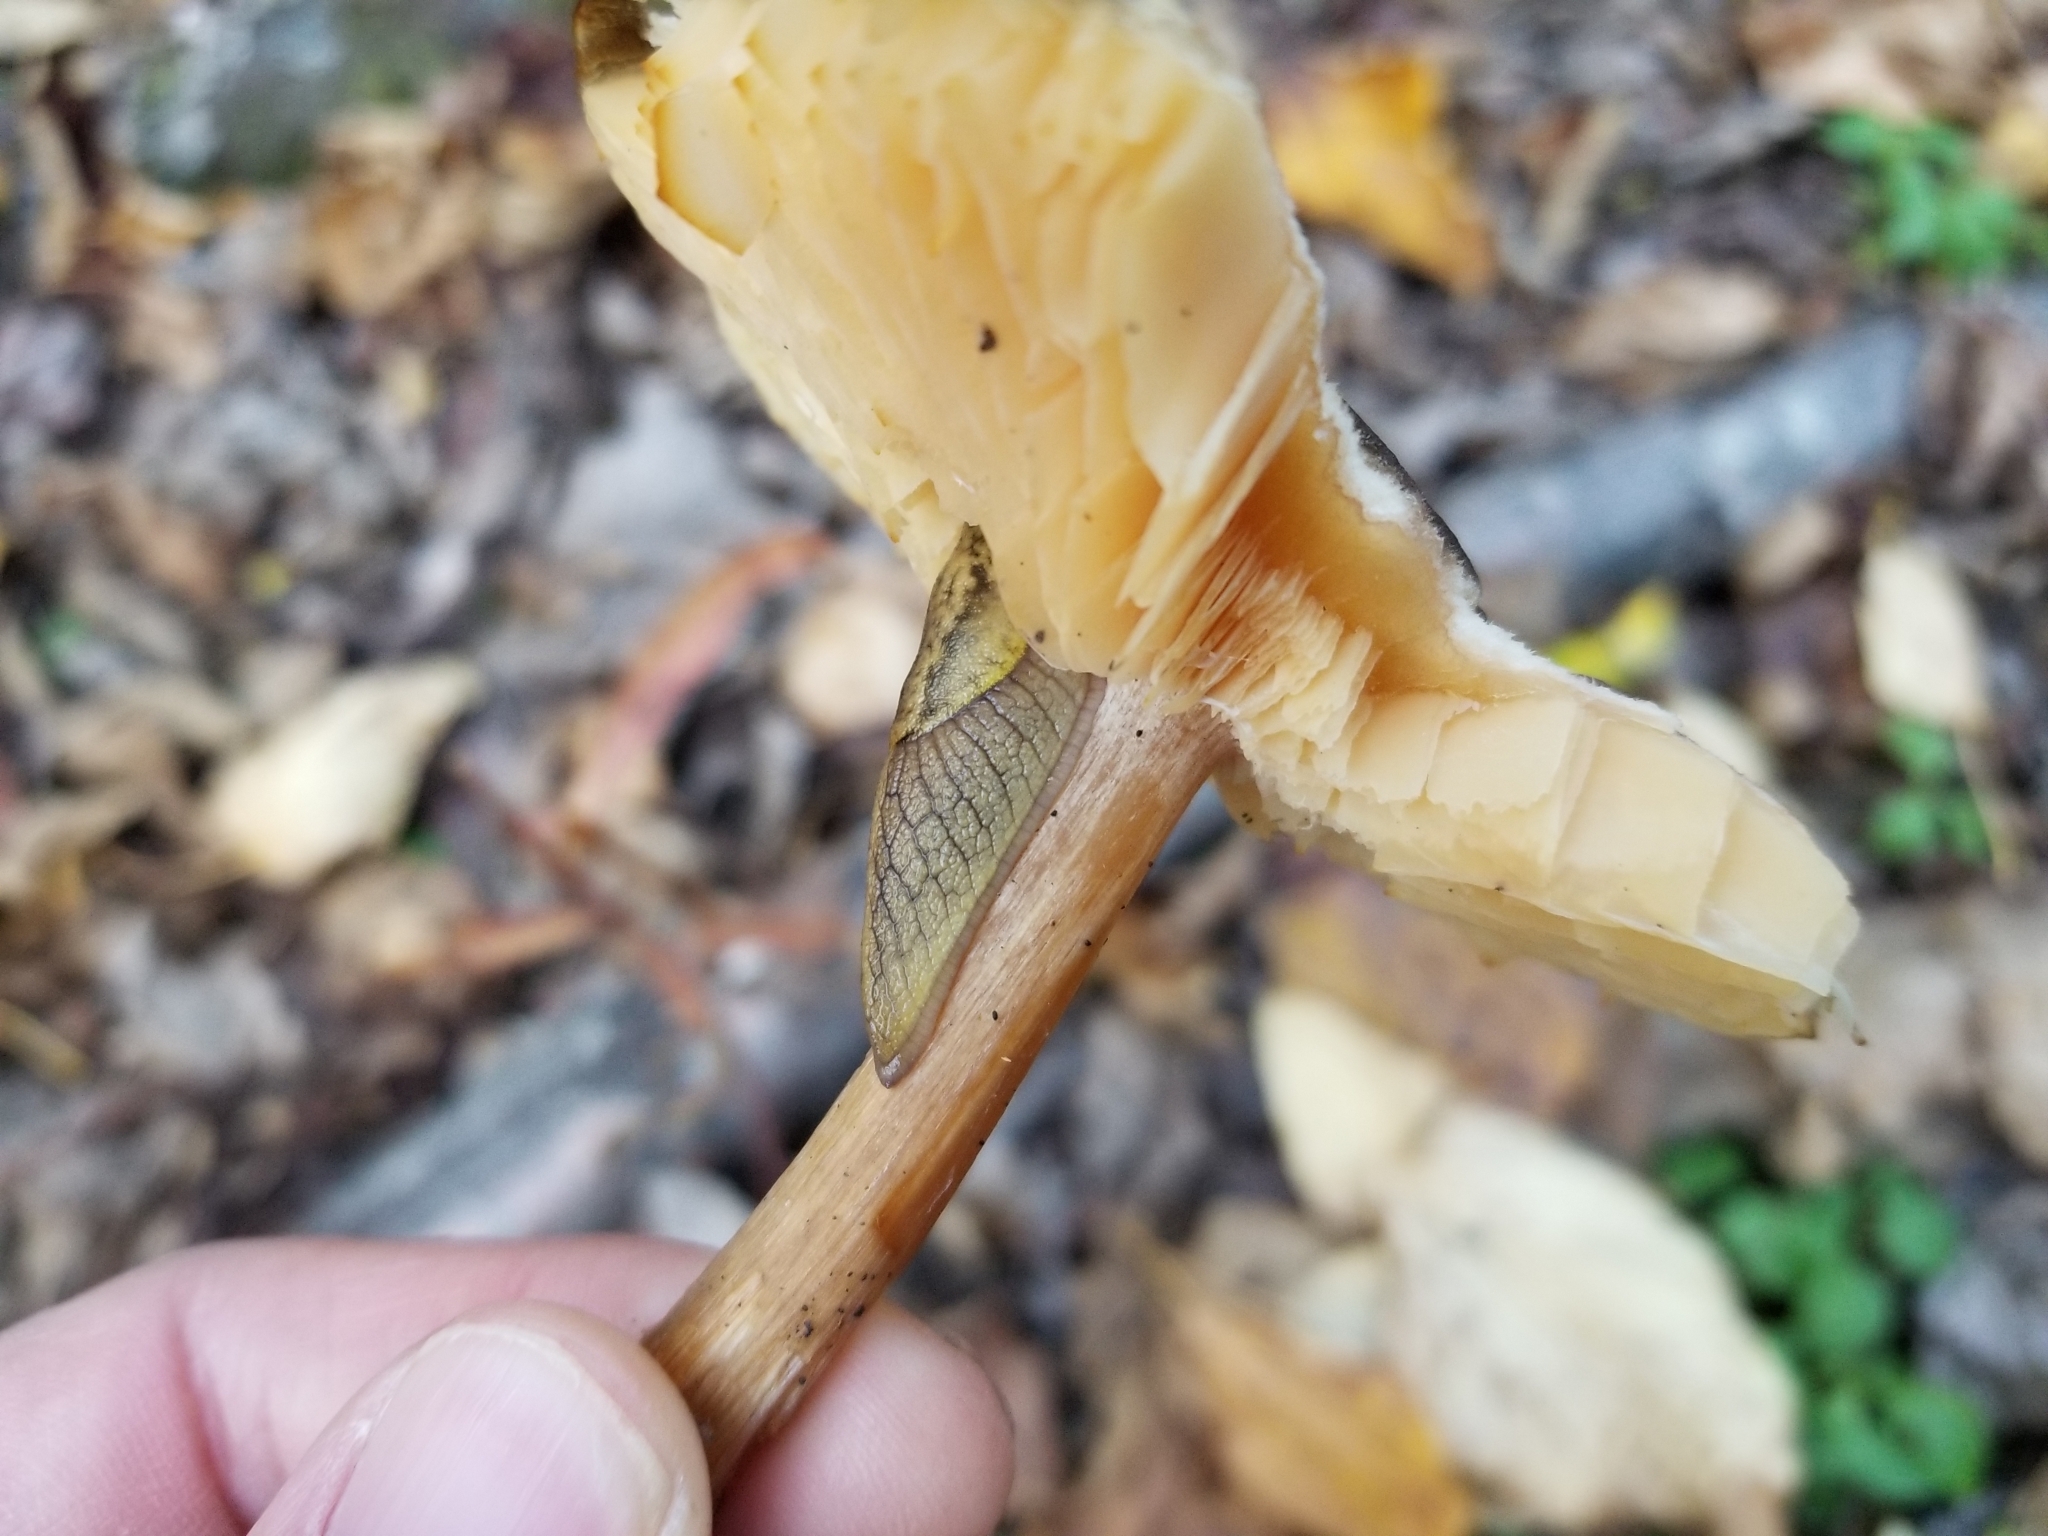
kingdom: Animalia
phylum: Mollusca
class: Gastropoda
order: Stylommatophora
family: Ariolimacidae
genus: Prophysaon
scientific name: Prophysaon andersonii
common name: Reticulate taildropper
